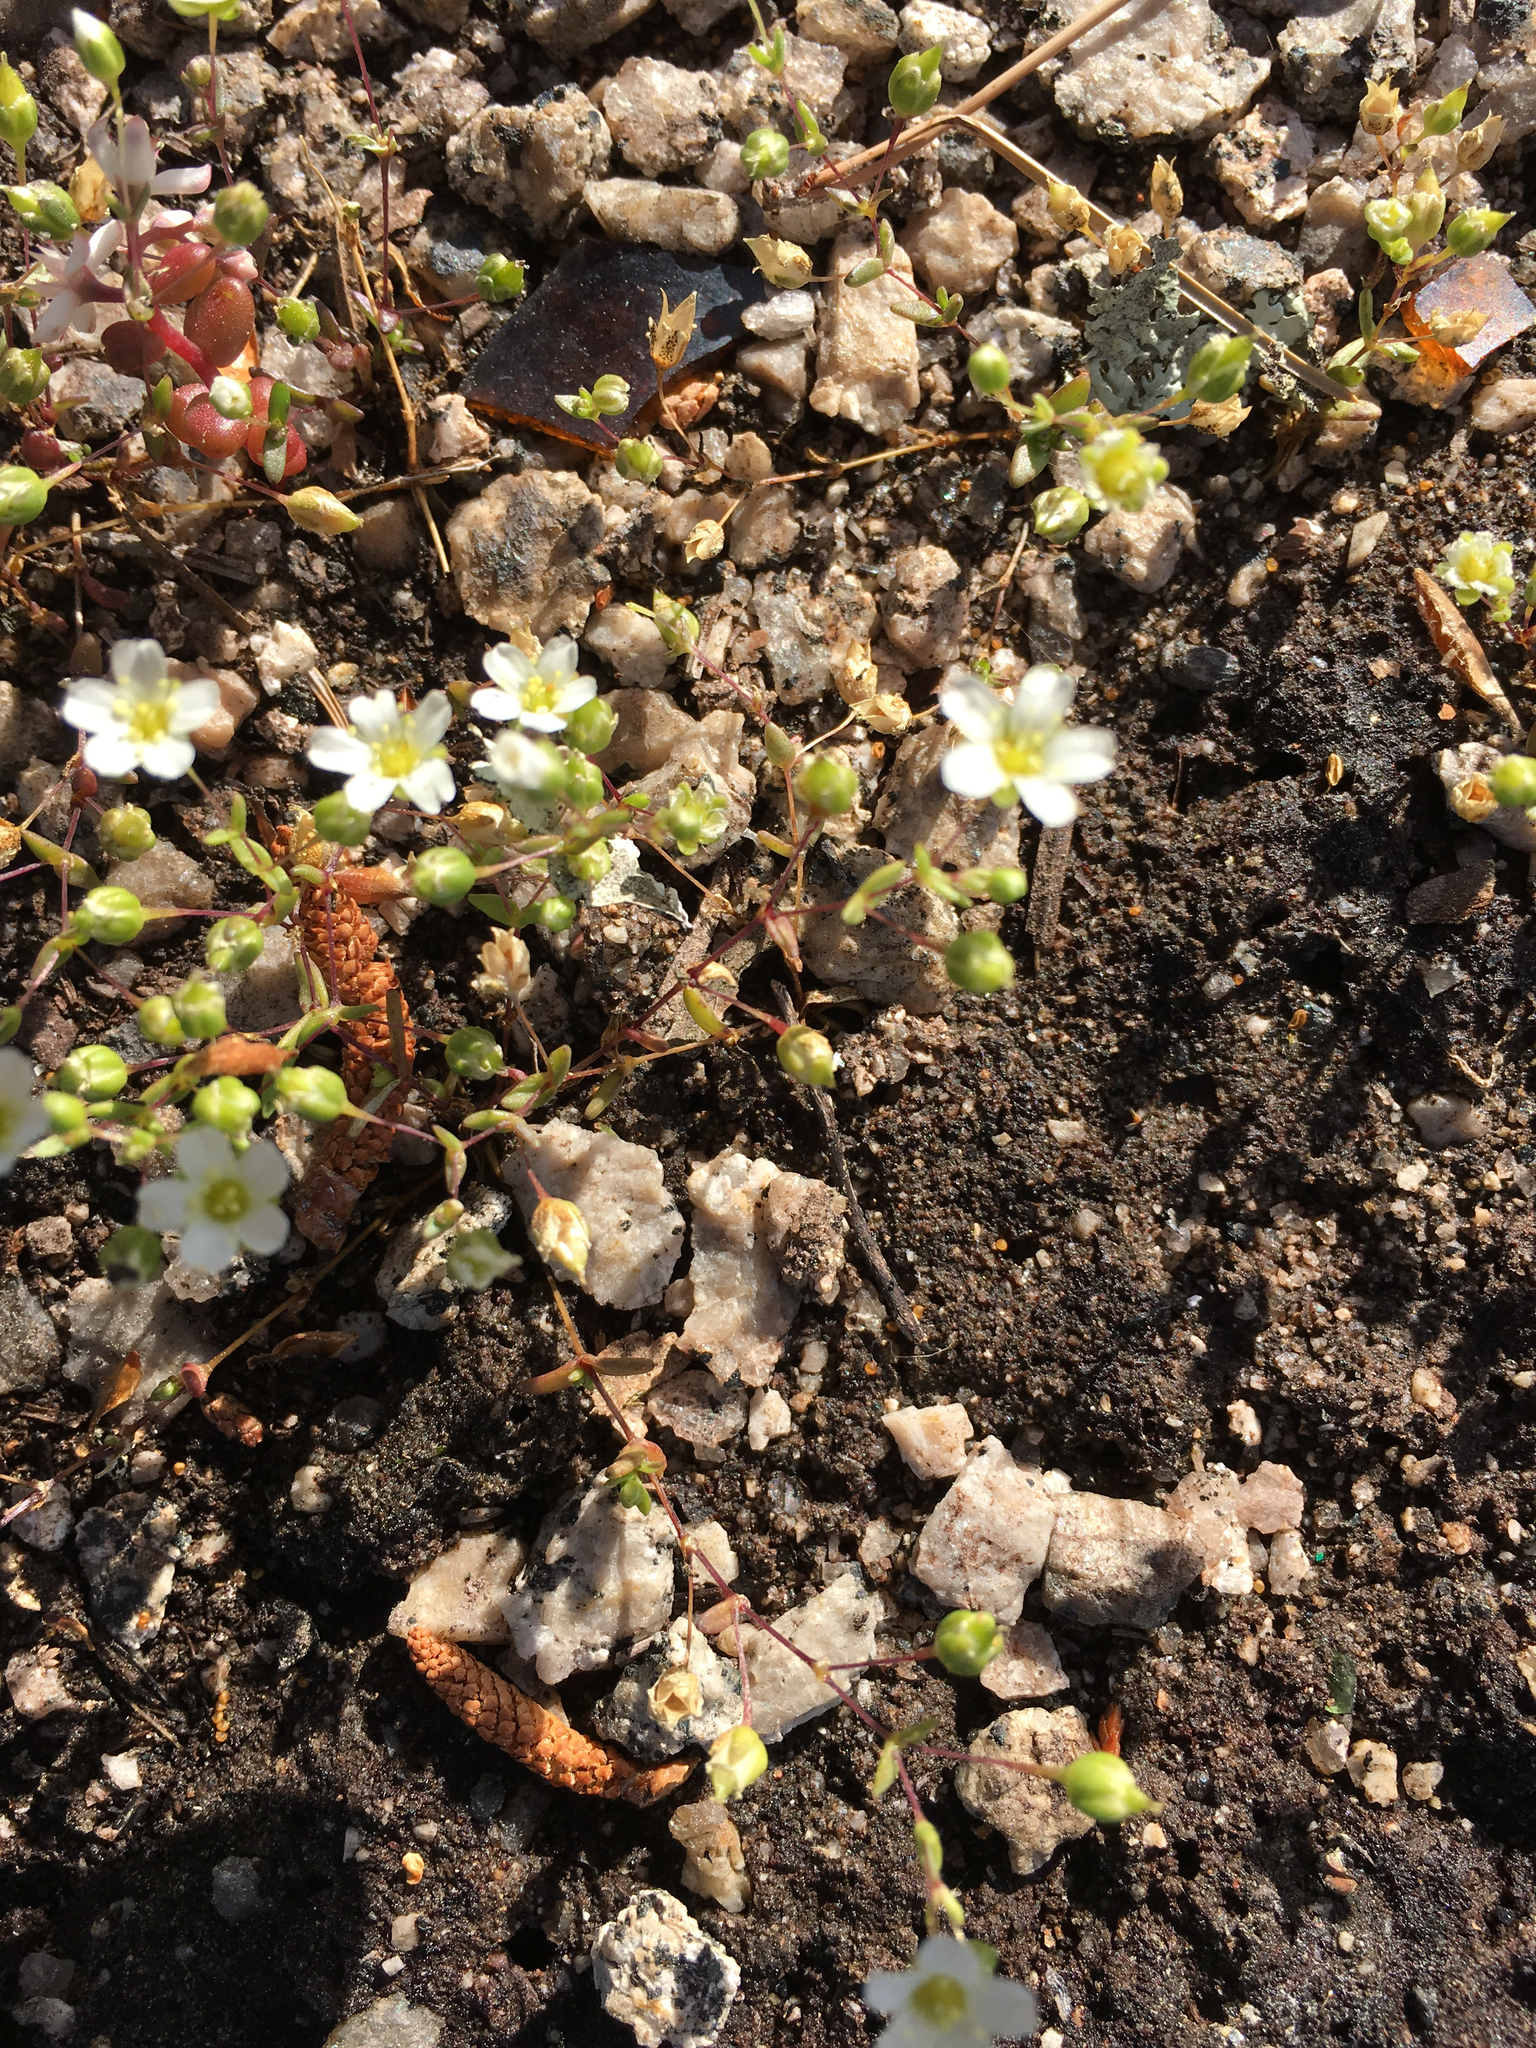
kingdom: Plantae
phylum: Tracheophyta
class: Magnoliopsida
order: Caryophyllales
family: Caryophyllaceae
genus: Geocarpon
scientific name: Geocarpon uniflorum
